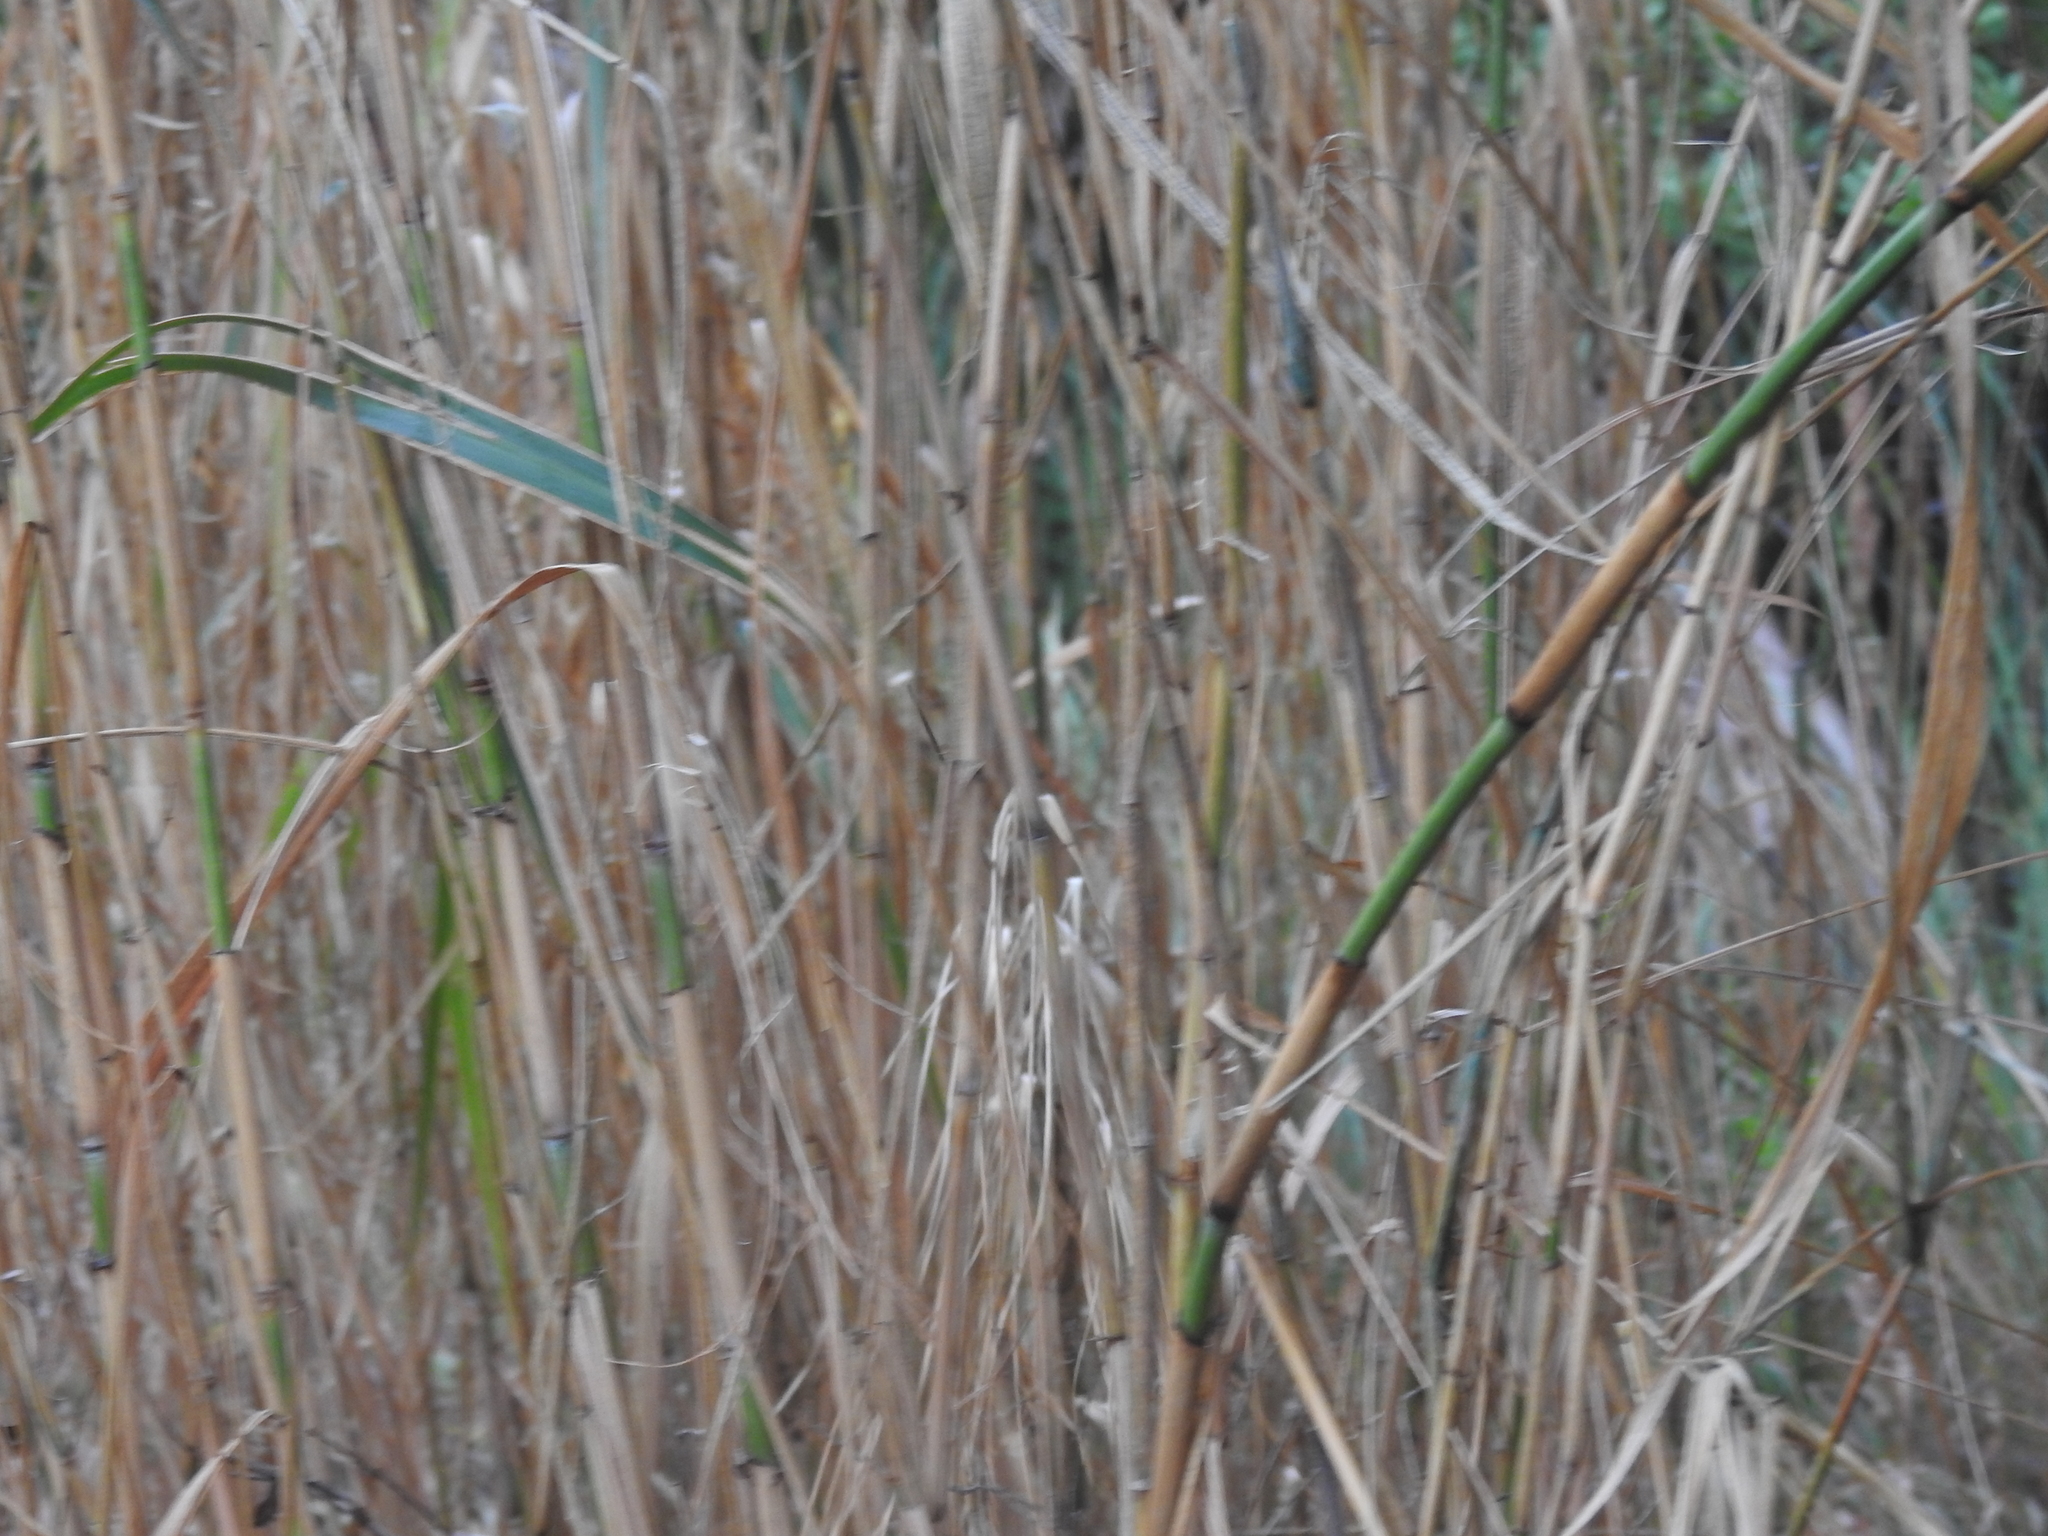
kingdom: Plantae
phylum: Tracheophyta
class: Liliopsida
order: Poales
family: Poaceae
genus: Neyraudia
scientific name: Neyraudia reynaudiana
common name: Silkreed
